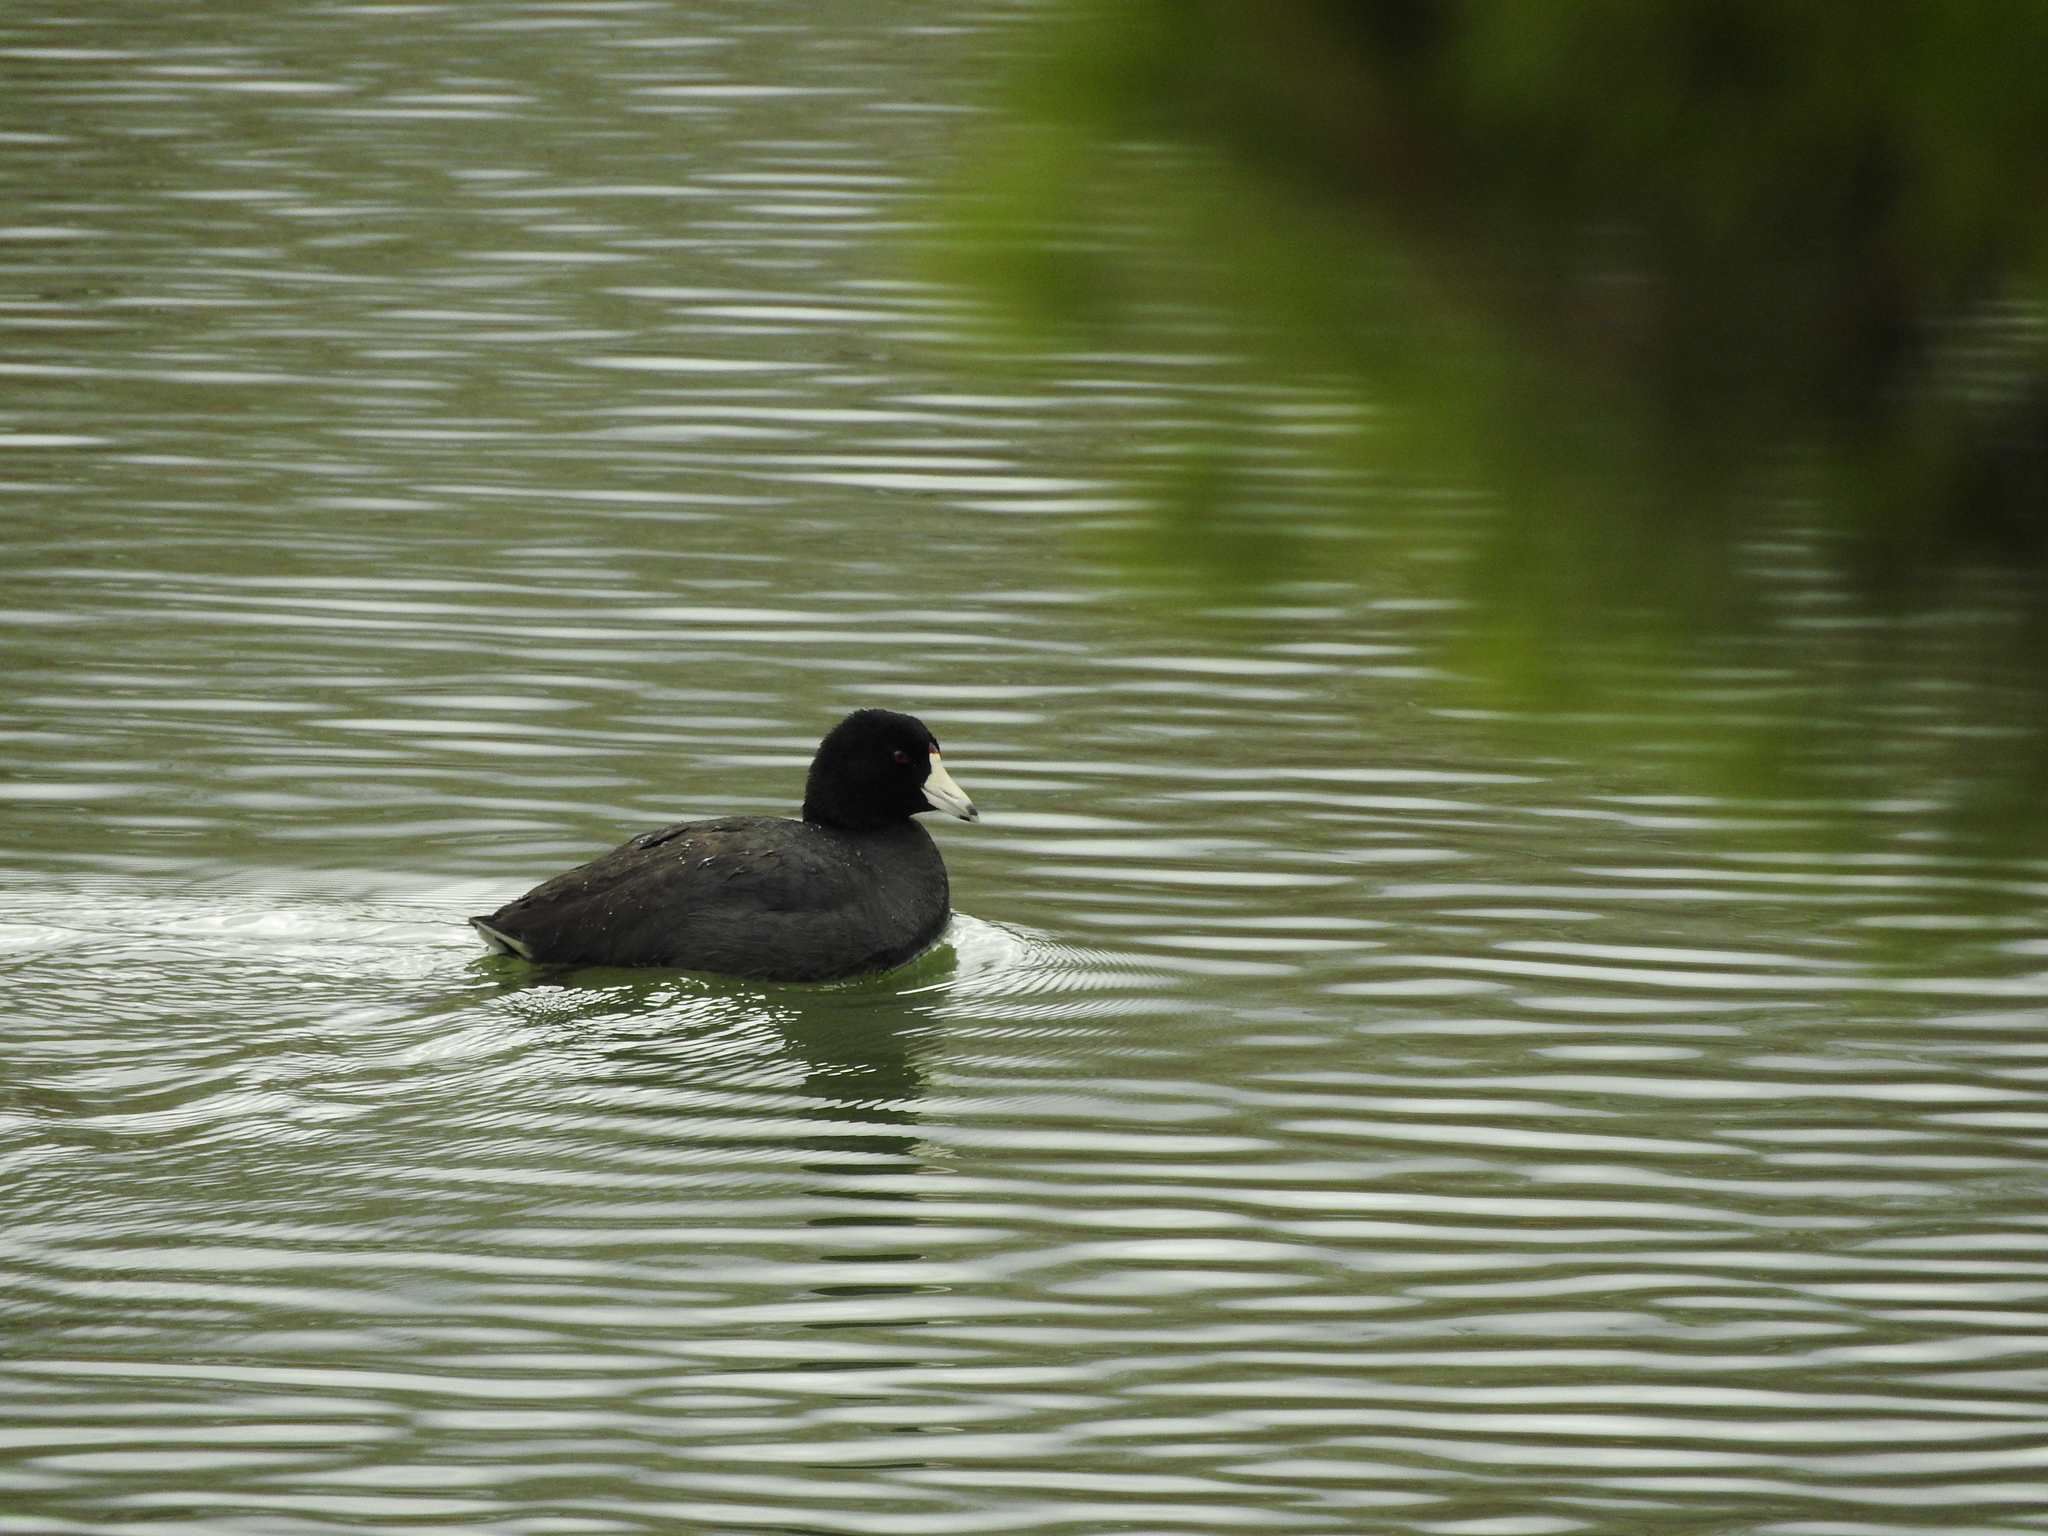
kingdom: Animalia
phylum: Chordata
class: Aves
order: Gruiformes
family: Rallidae
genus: Fulica
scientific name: Fulica americana
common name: American coot
